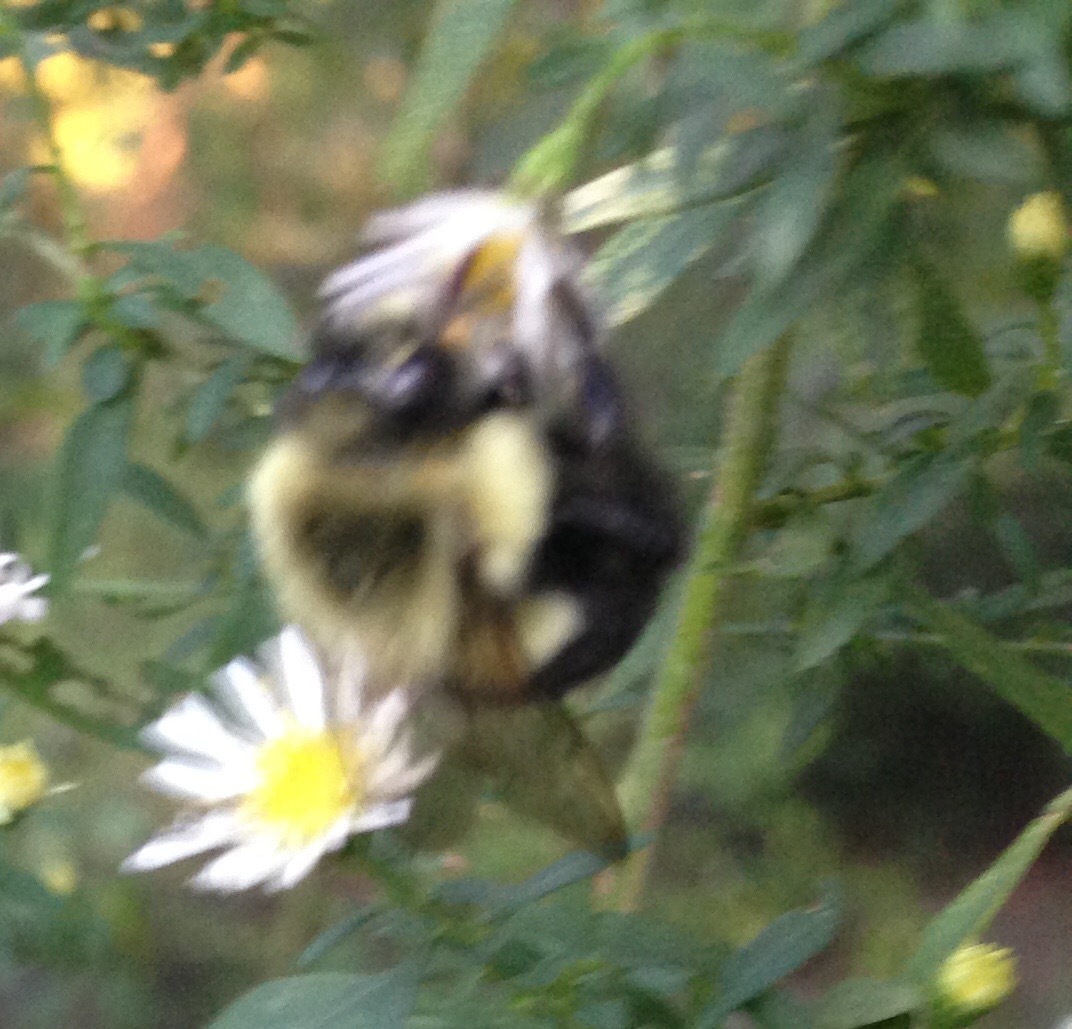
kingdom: Animalia
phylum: Arthropoda
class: Insecta
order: Hymenoptera
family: Apidae
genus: Bombus
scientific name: Bombus impatiens
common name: Common eastern bumble bee
